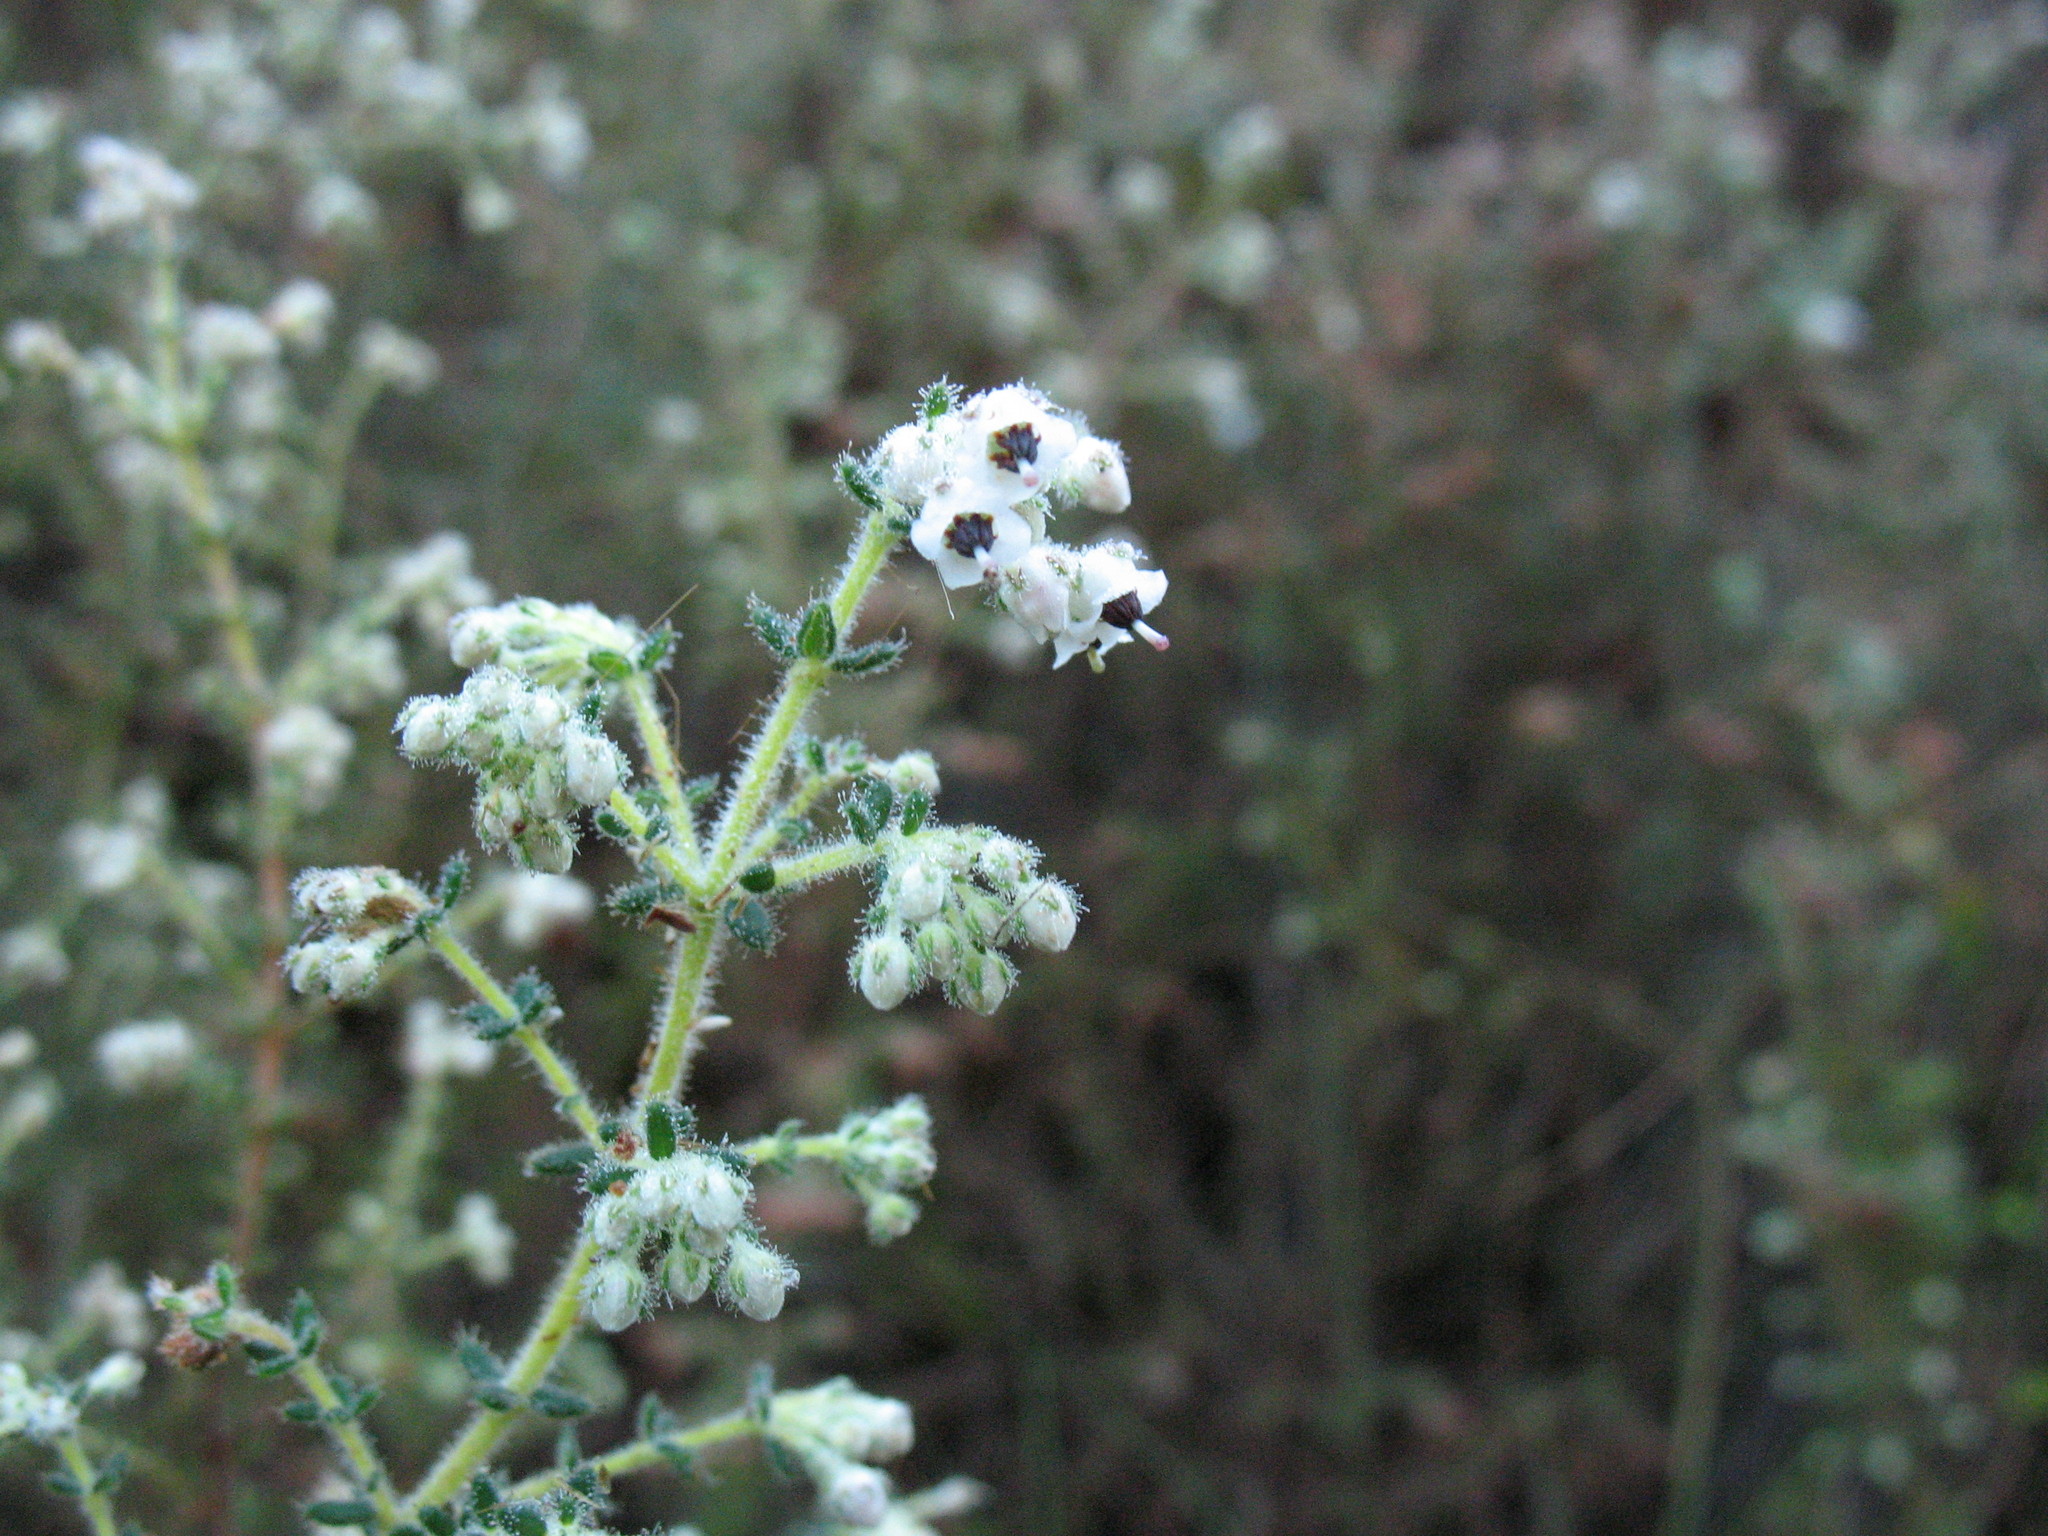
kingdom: Plantae
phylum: Tracheophyta
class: Magnoliopsida
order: Ericales
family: Ericaceae
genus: Erica
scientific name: Erica perlata
